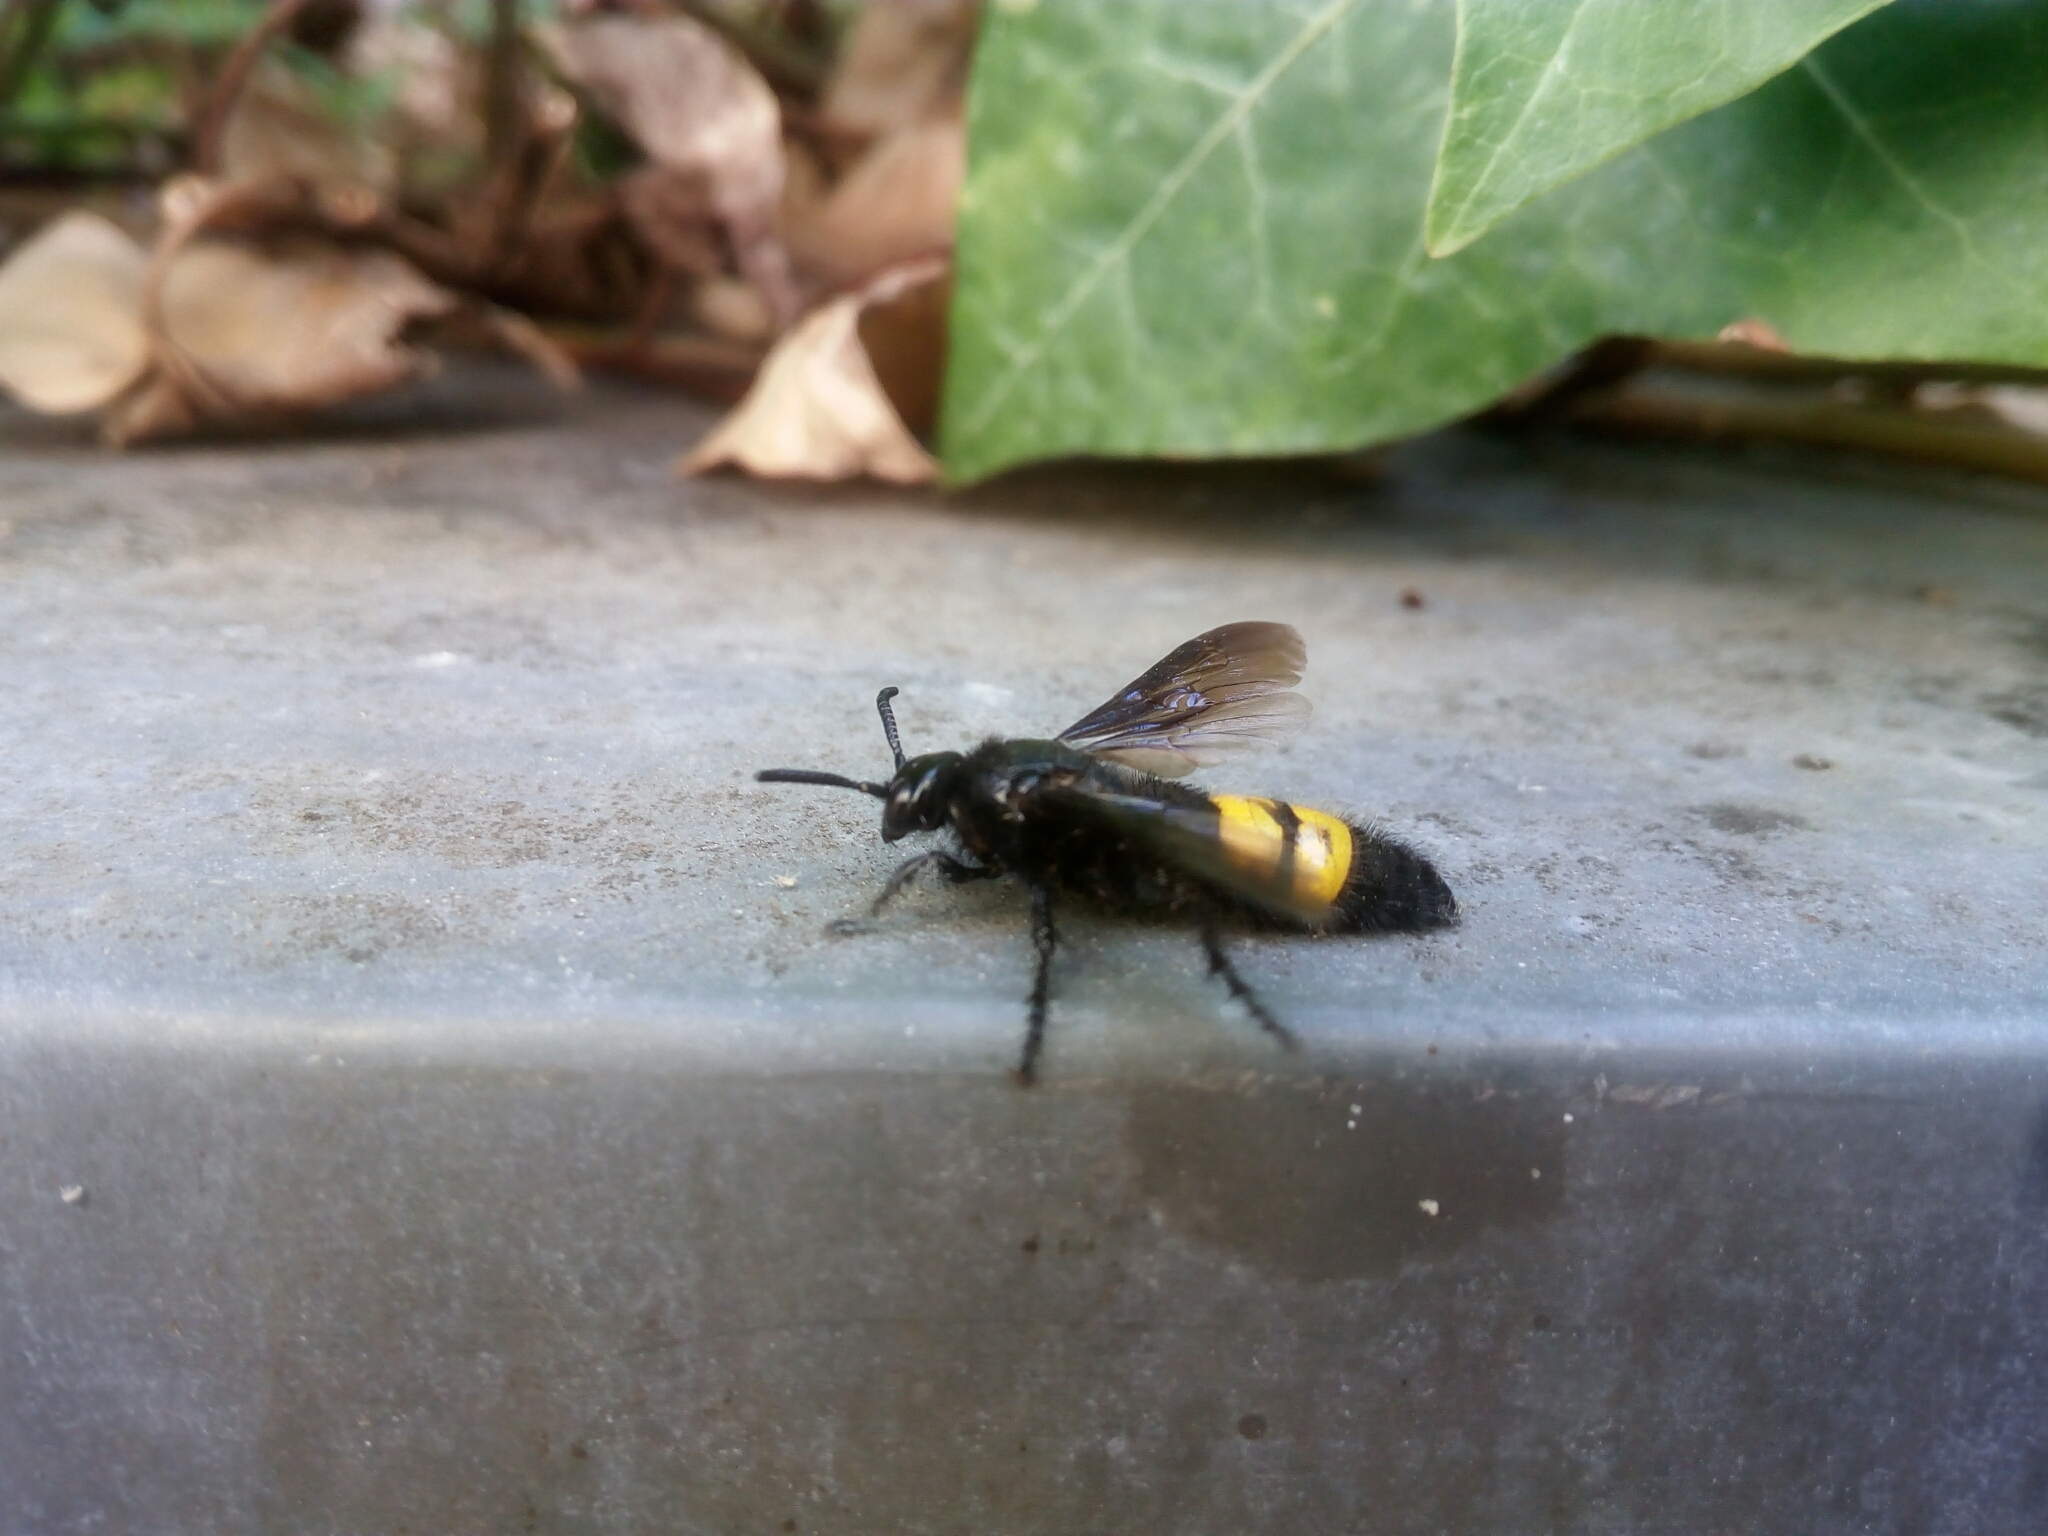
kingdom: Animalia
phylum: Arthropoda
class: Insecta
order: Hymenoptera
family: Scoliidae
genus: Scolia
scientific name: Scolia hirta
